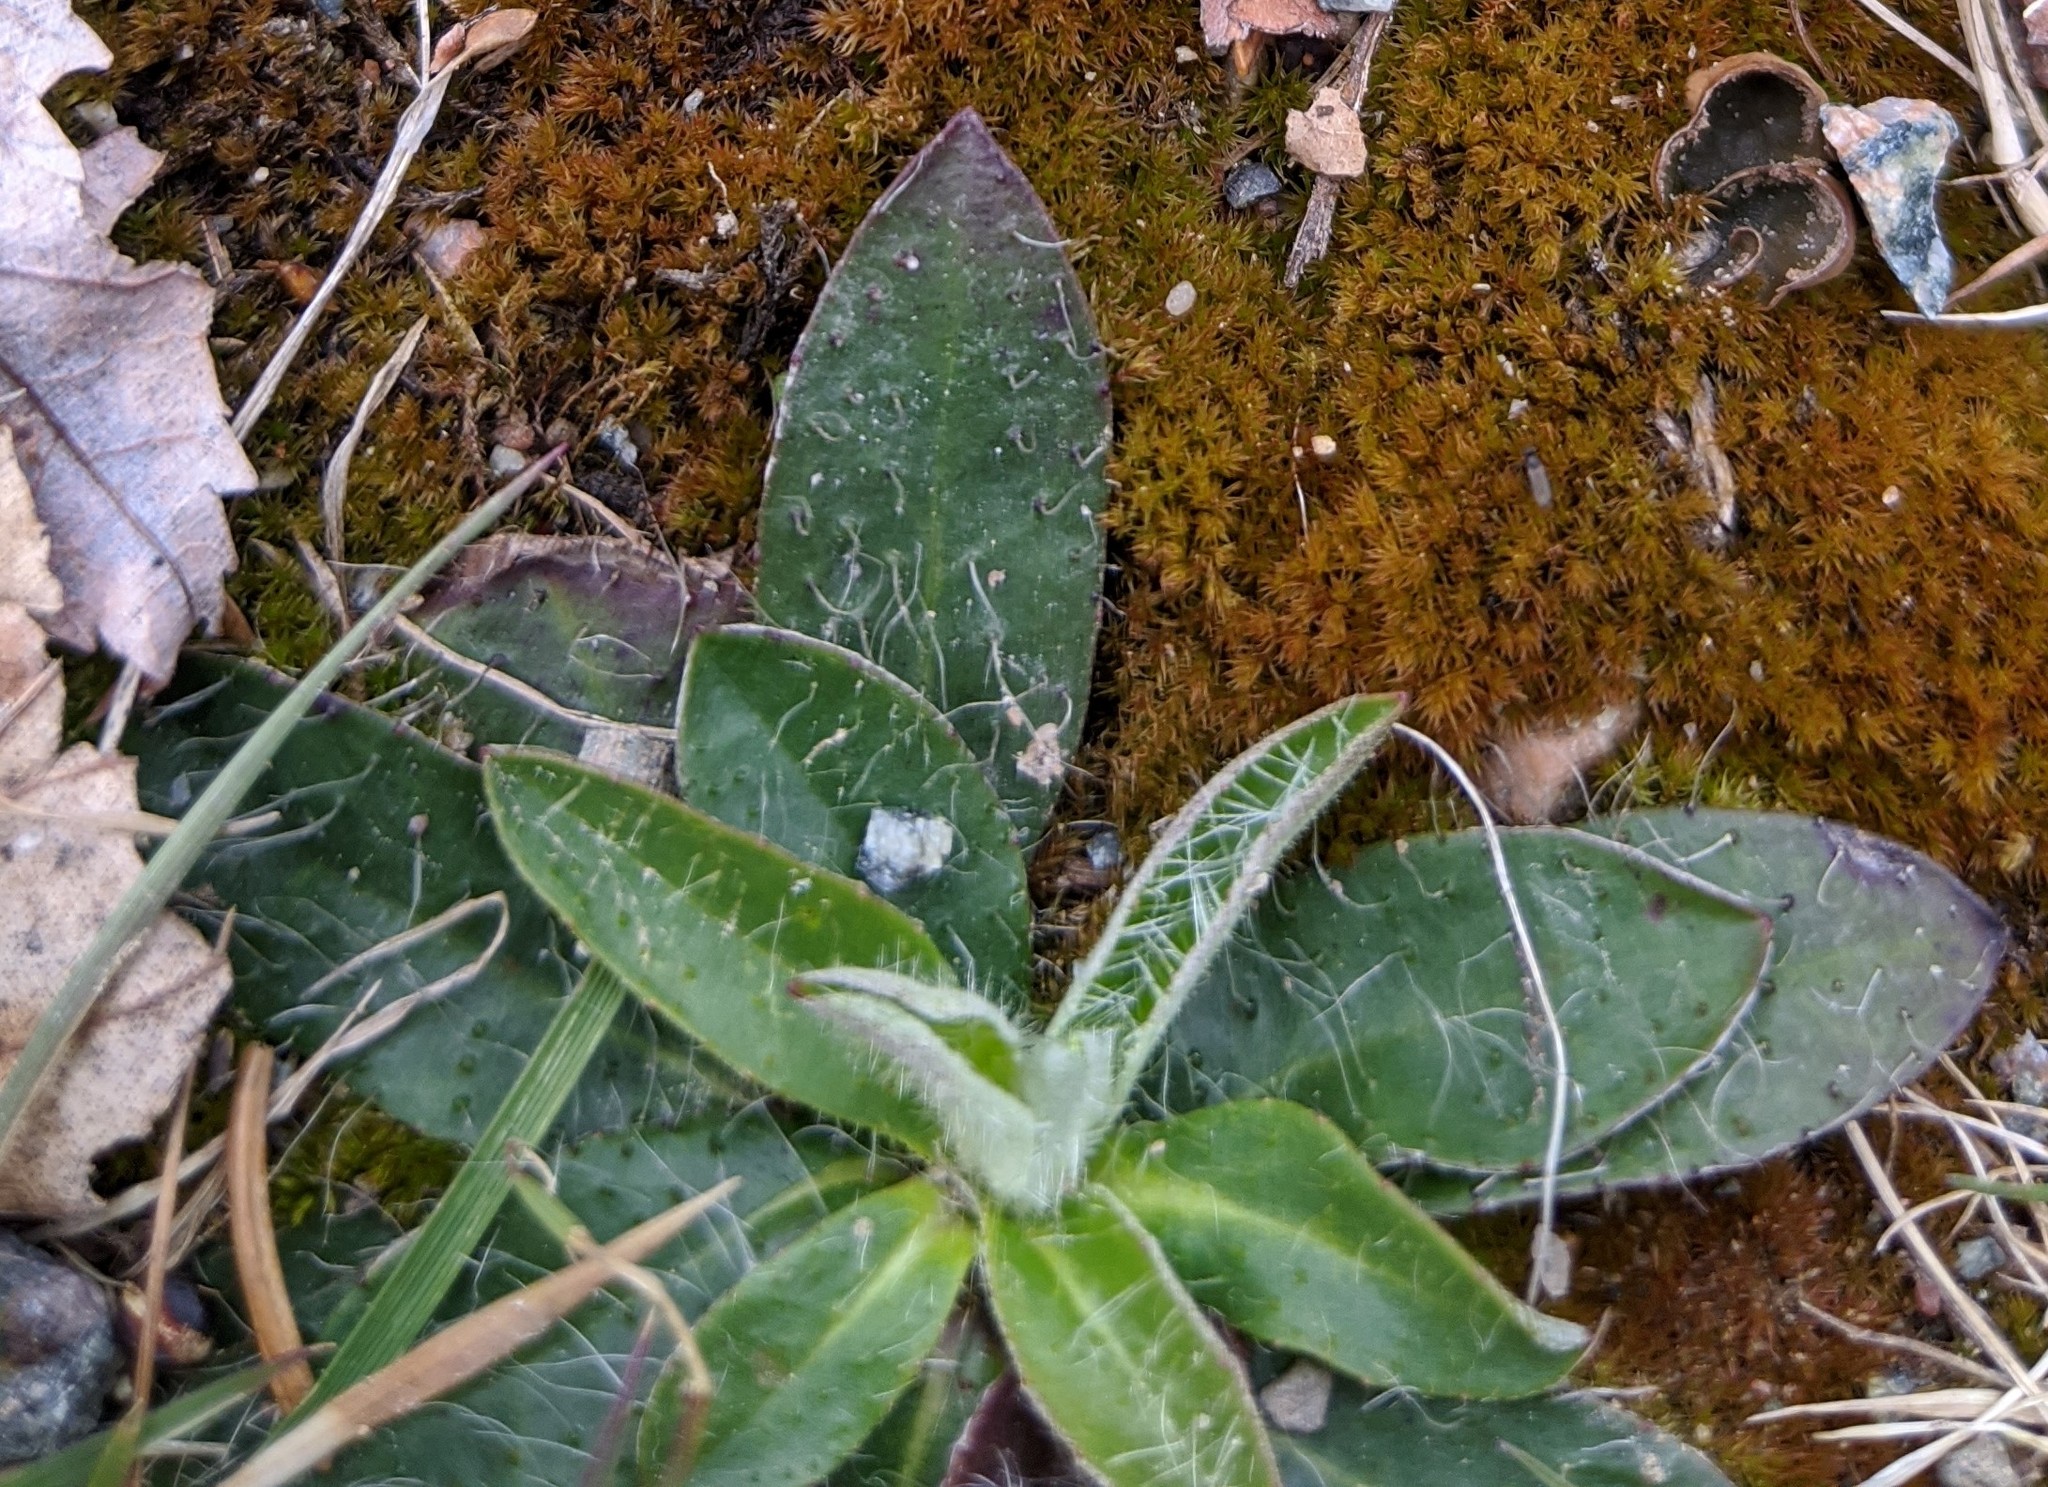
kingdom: Plantae
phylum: Tracheophyta
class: Magnoliopsida
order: Asterales
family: Asteraceae
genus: Pilosella
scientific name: Pilosella officinarum
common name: Mouse-ear hawkweed
